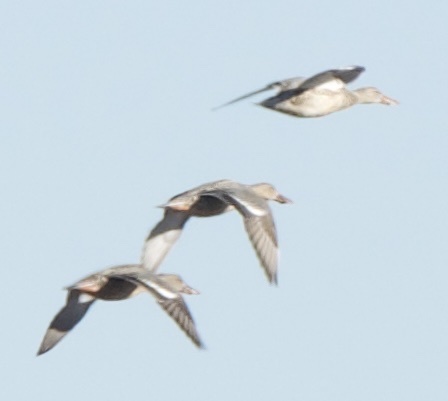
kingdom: Animalia
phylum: Chordata
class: Aves
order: Anseriformes
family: Anatidae
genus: Spatula
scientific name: Spatula clypeata
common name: Northern shoveler
